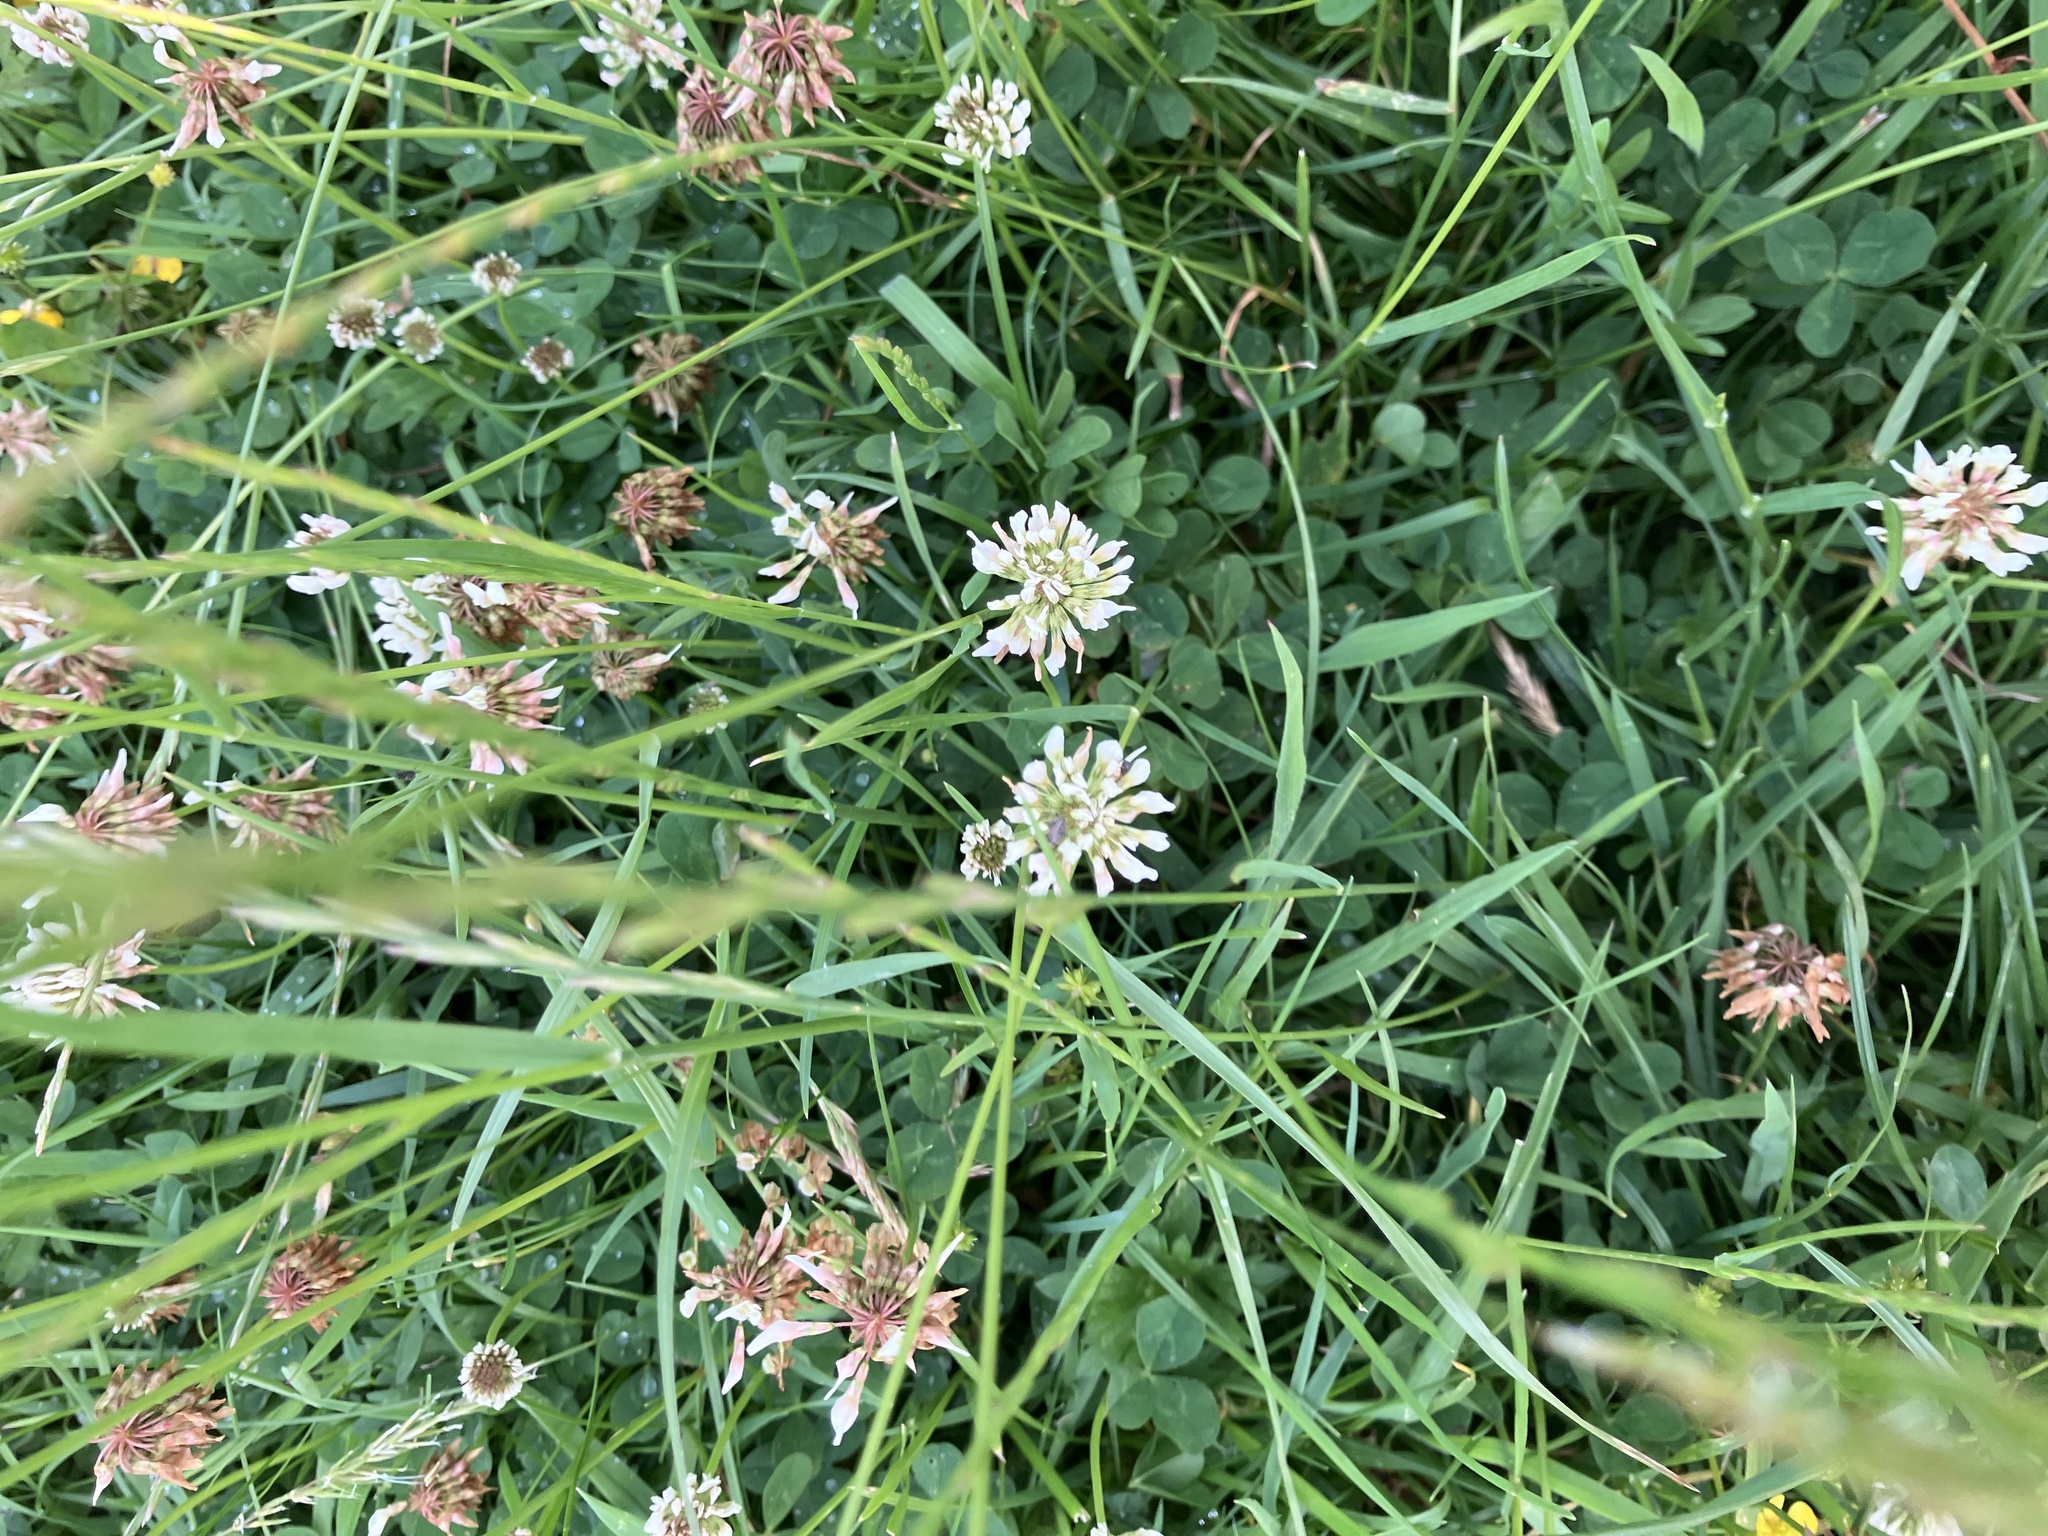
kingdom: Plantae
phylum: Tracheophyta
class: Magnoliopsida
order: Fabales
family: Fabaceae
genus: Trifolium
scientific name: Trifolium repens
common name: White clover
